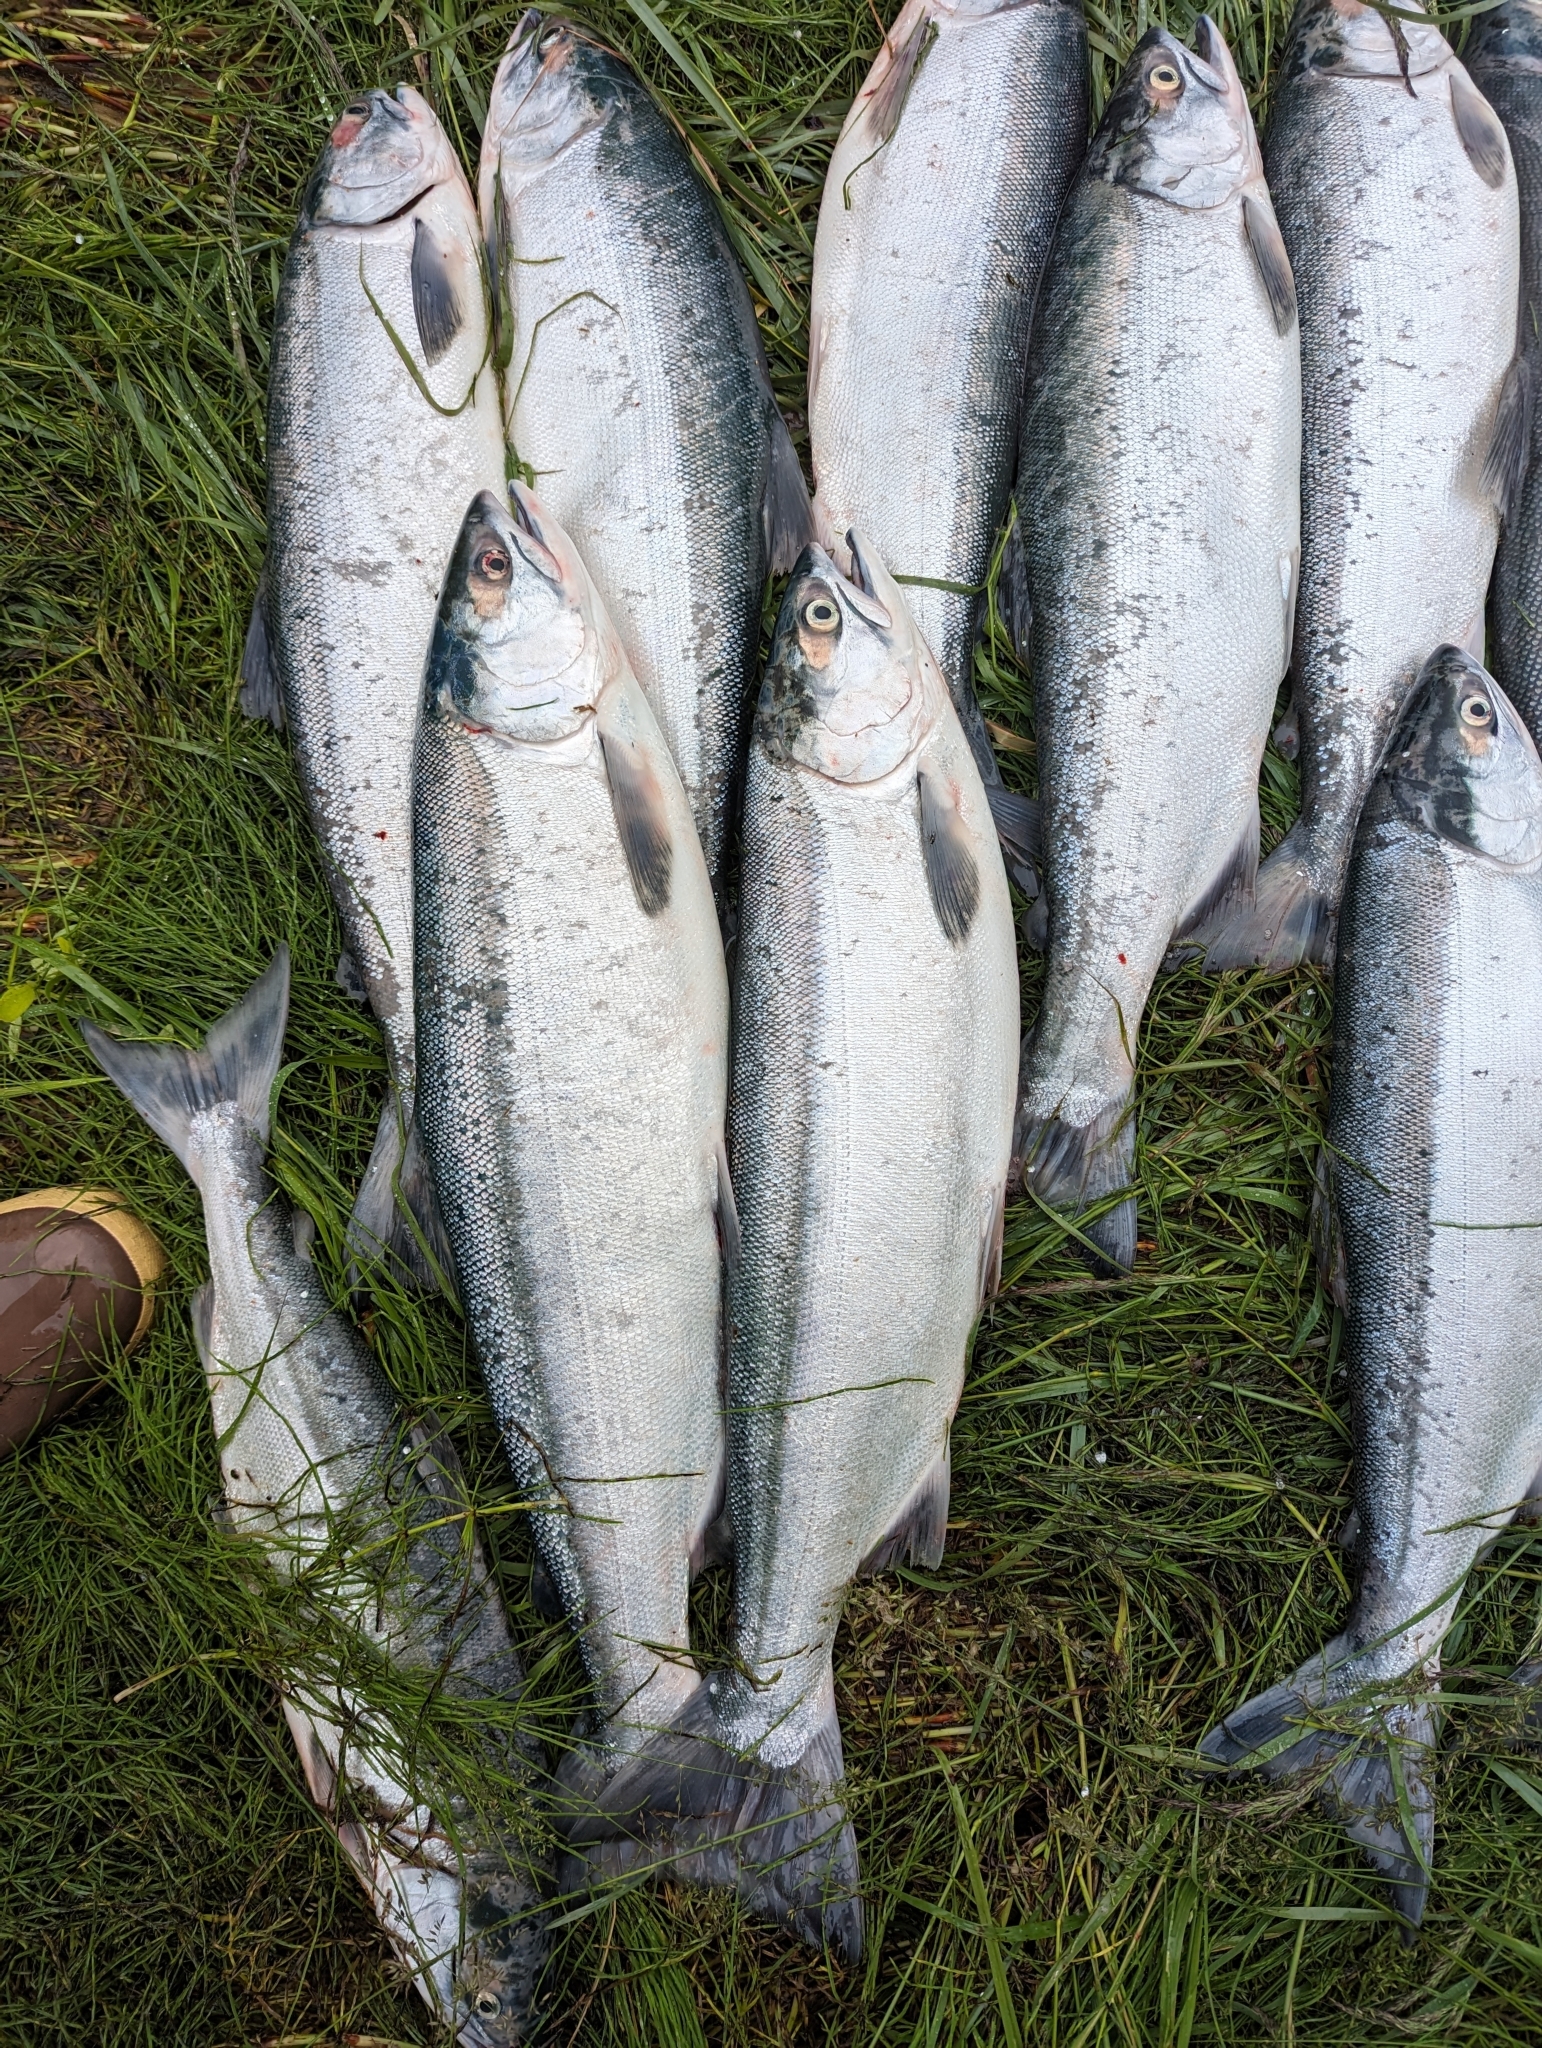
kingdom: Animalia
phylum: Chordata
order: Salmoniformes
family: Salmonidae
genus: Oncorhynchus
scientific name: Oncorhynchus nerka
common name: Sockeye salmon
